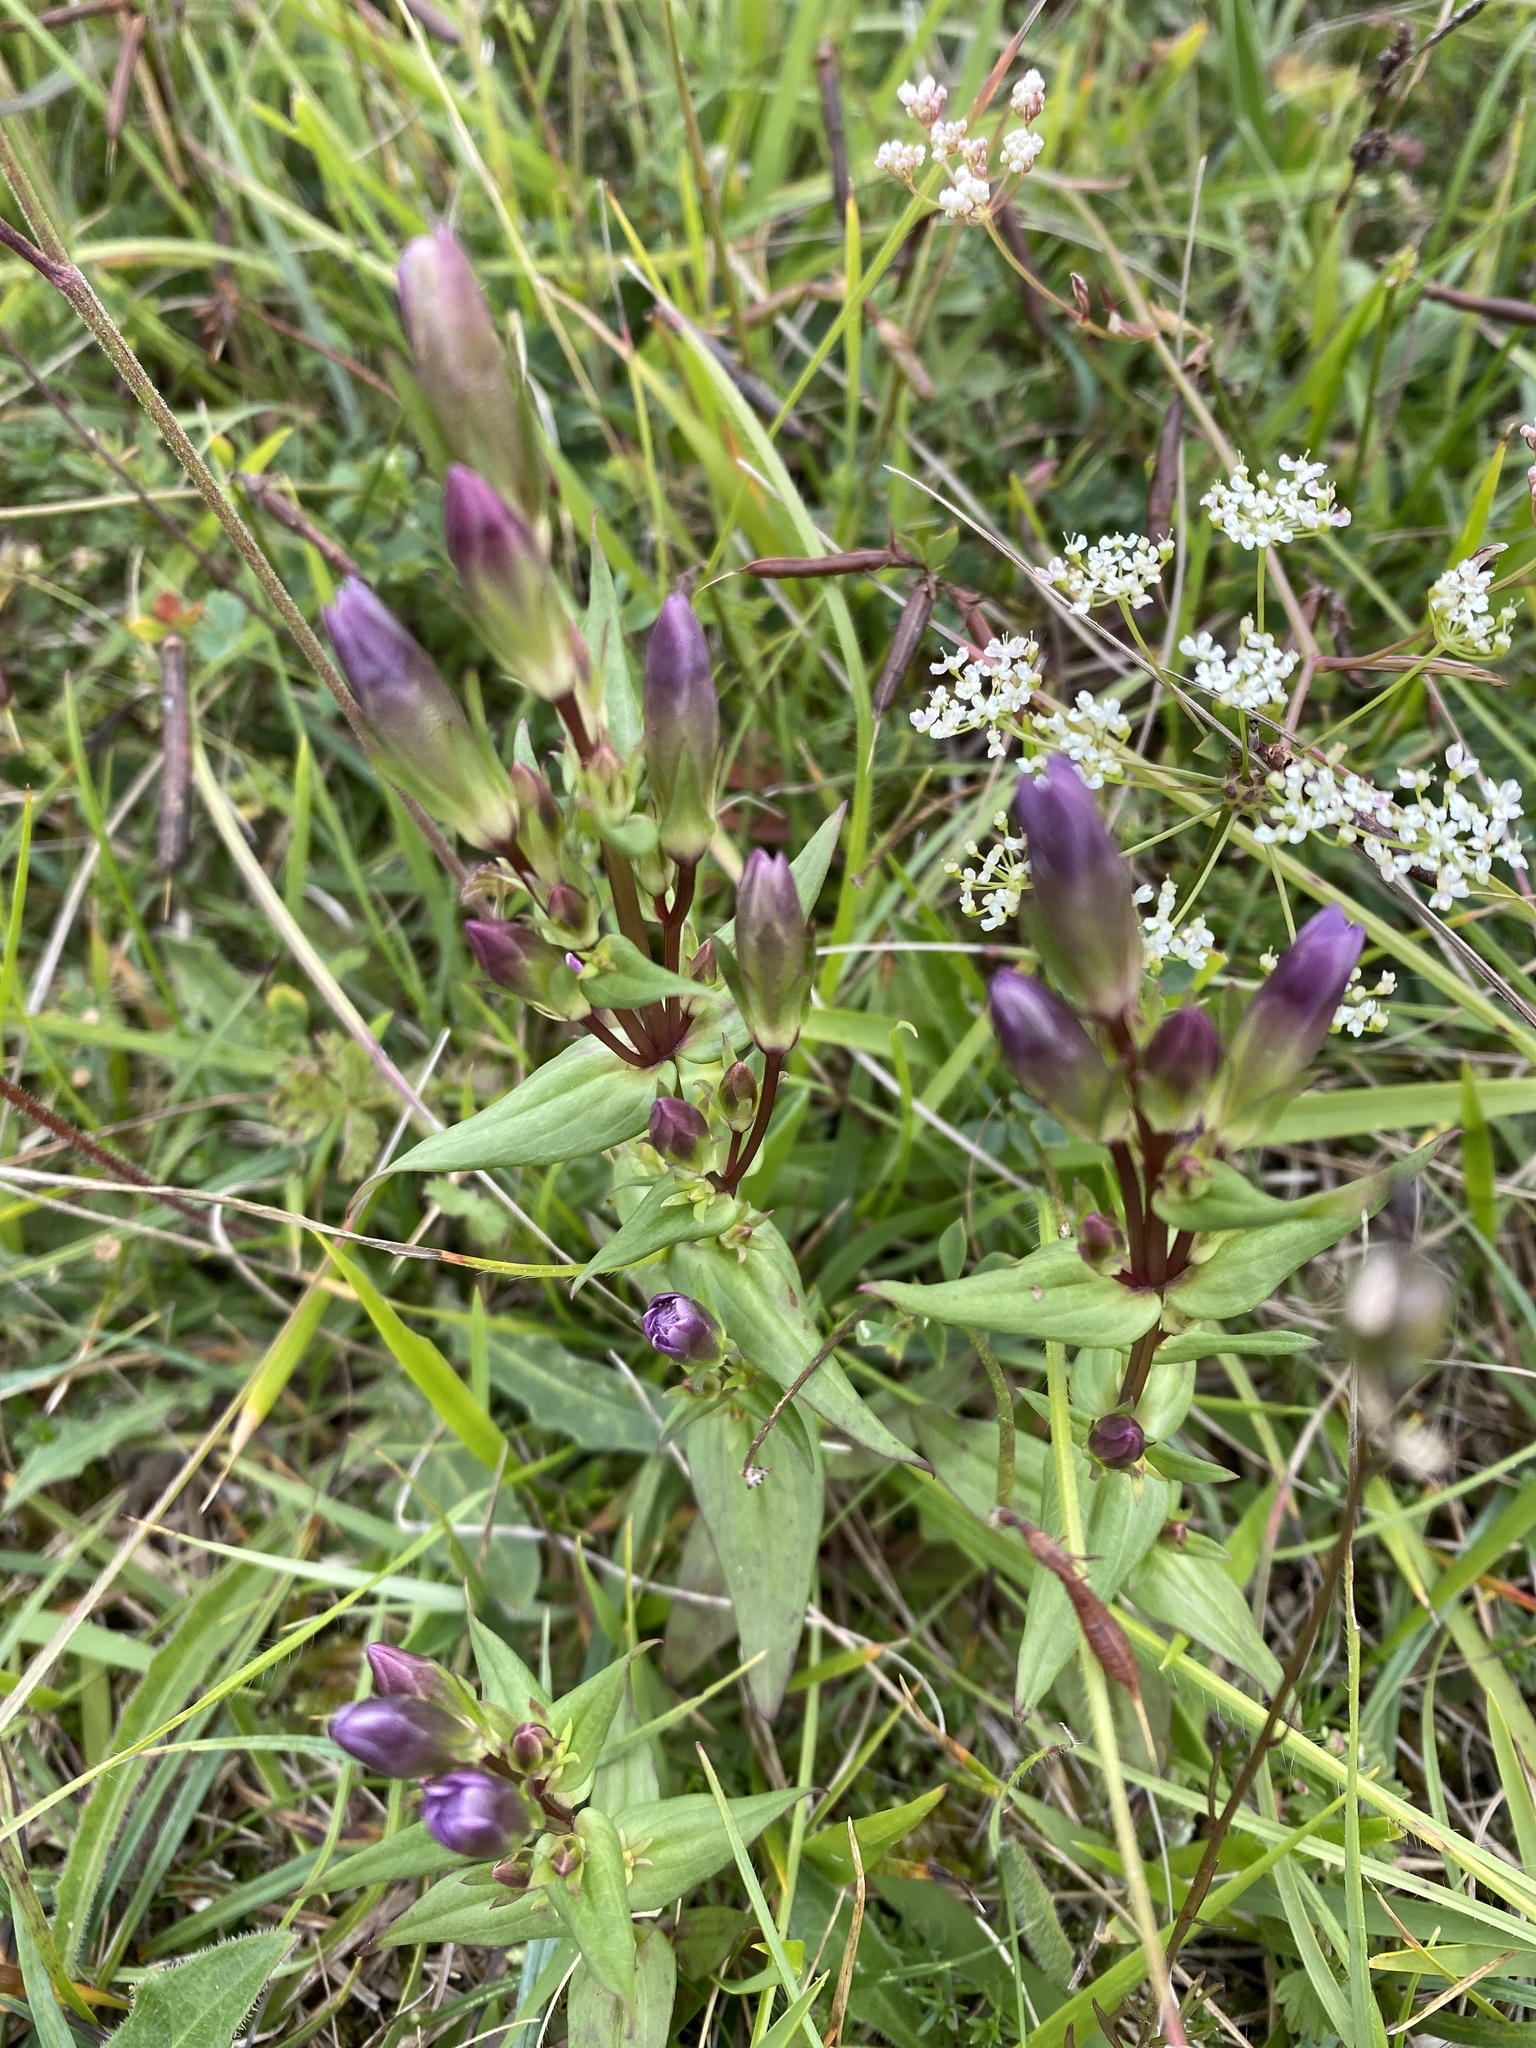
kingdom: Plantae
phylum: Tracheophyta
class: Magnoliopsida
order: Gentianales
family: Gentianaceae
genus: Gentianella
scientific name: Gentianella amarella
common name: Autumn gentian
